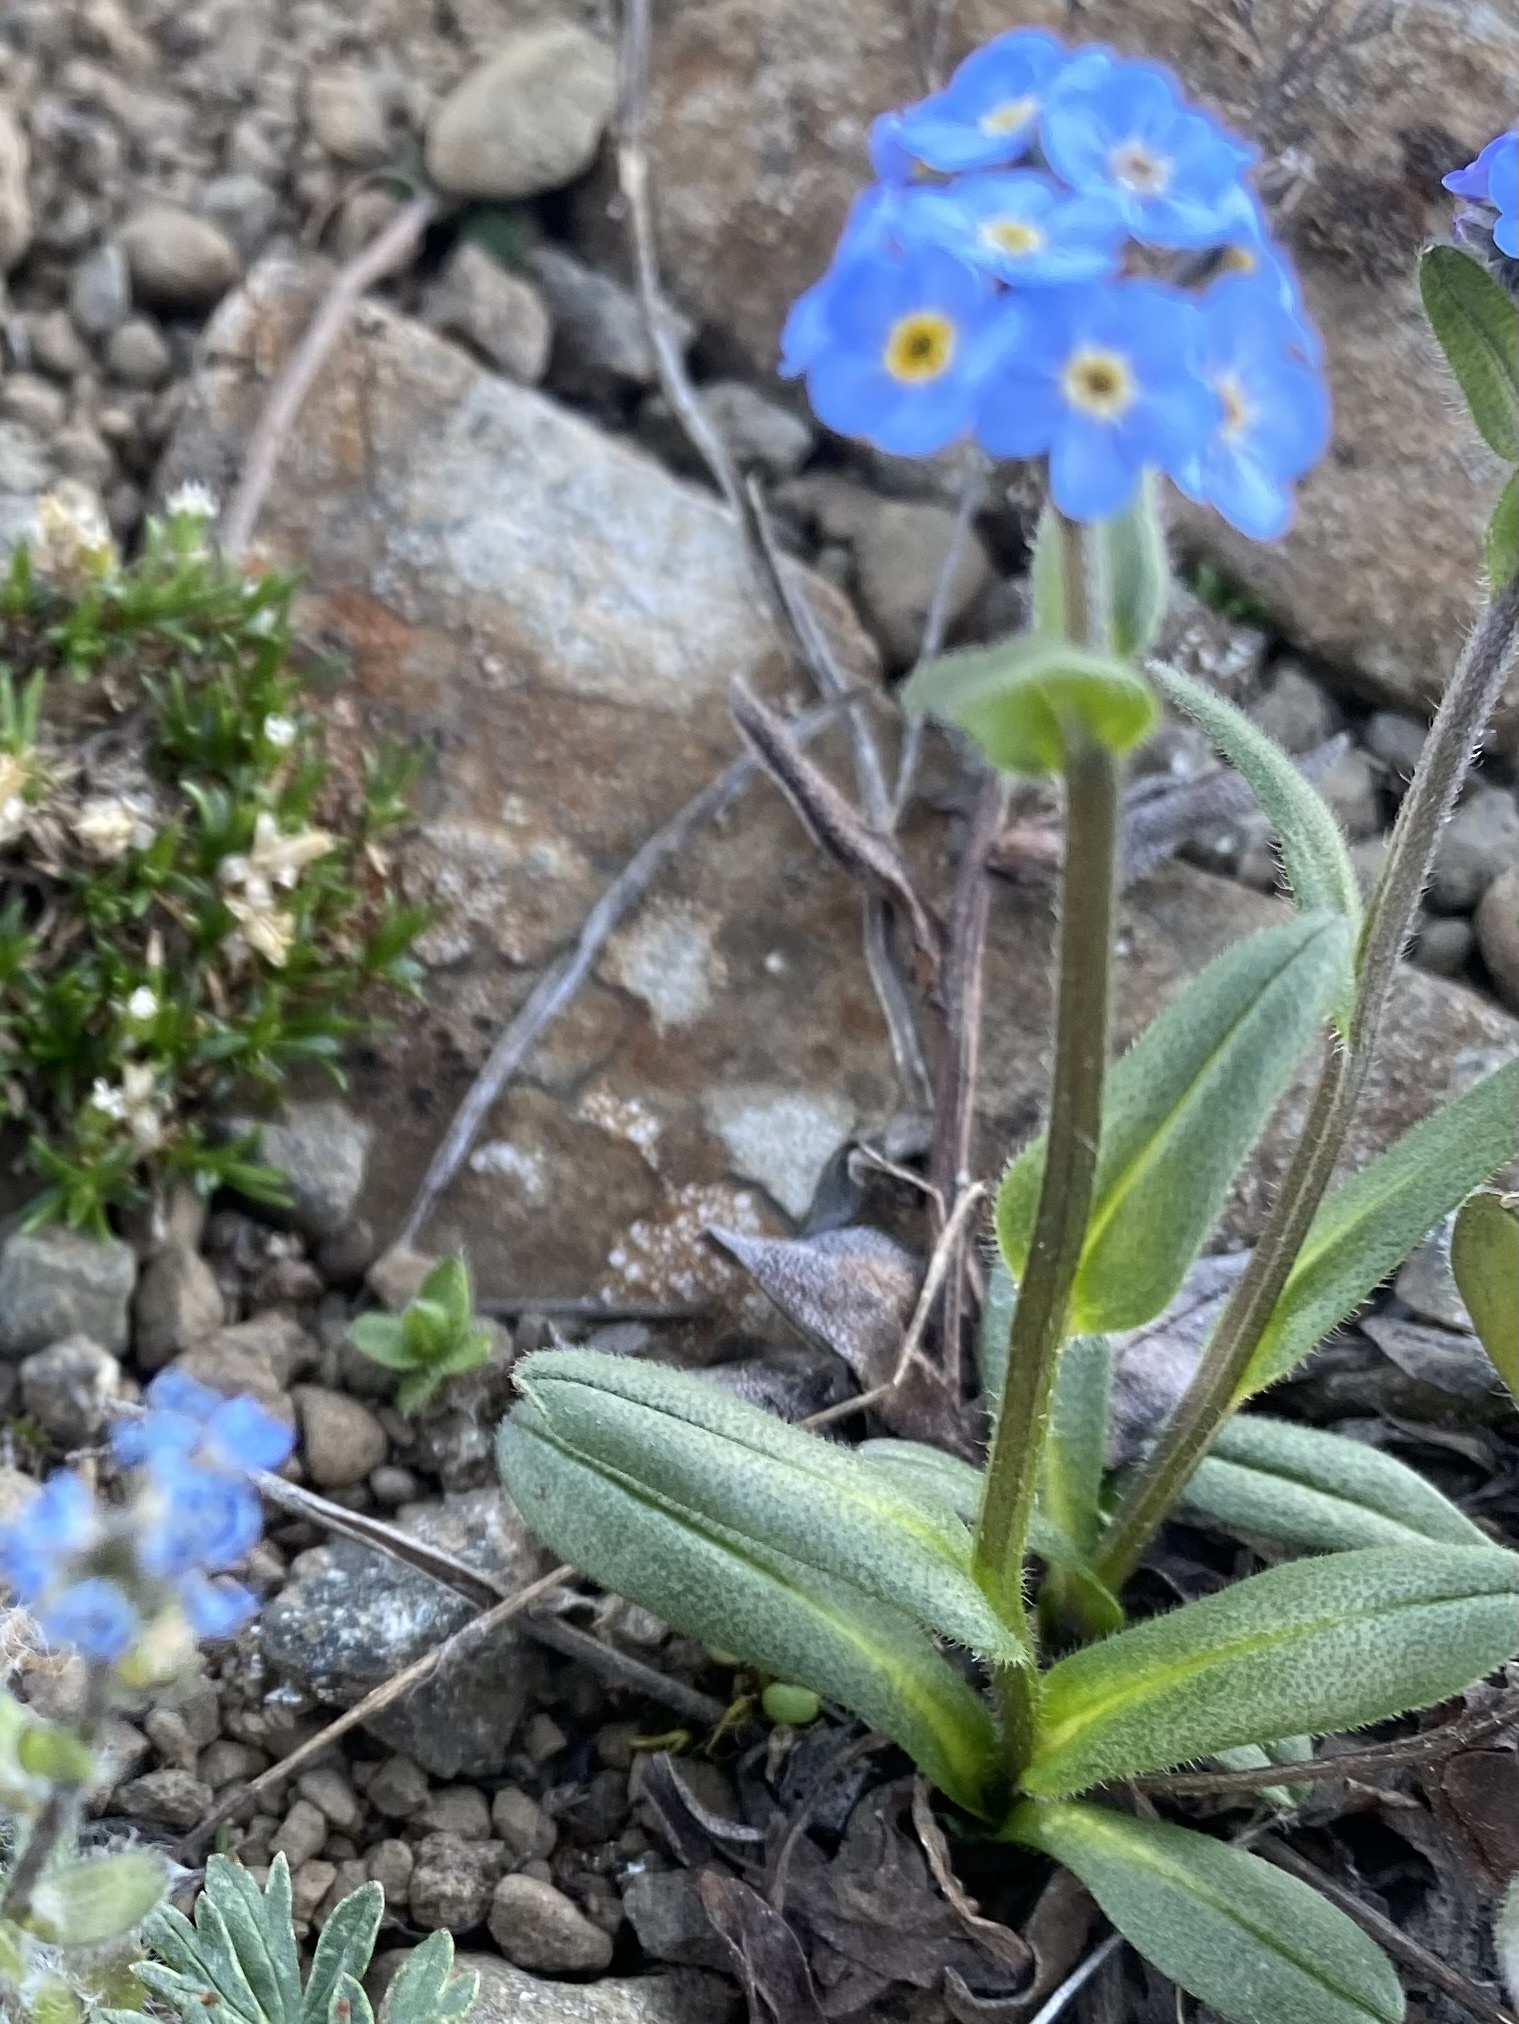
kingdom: Plantae
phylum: Tracheophyta
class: Magnoliopsida
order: Boraginales
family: Boraginaceae
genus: Myosotis
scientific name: Myosotis asiatica
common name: Asian forget-me-not
